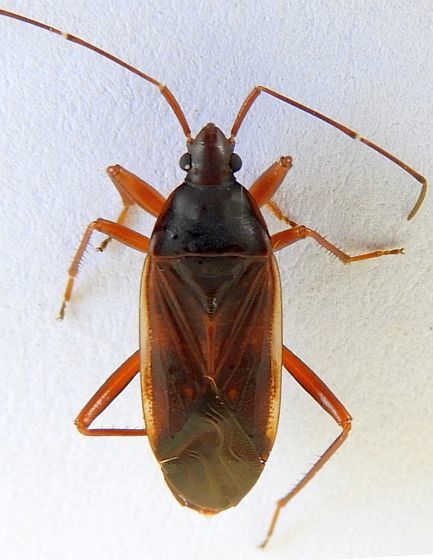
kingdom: Animalia
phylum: Arthropoda
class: Insecta
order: Hemiptera
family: Rhyparochromidae
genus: Balboa
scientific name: Balboa ampliata
